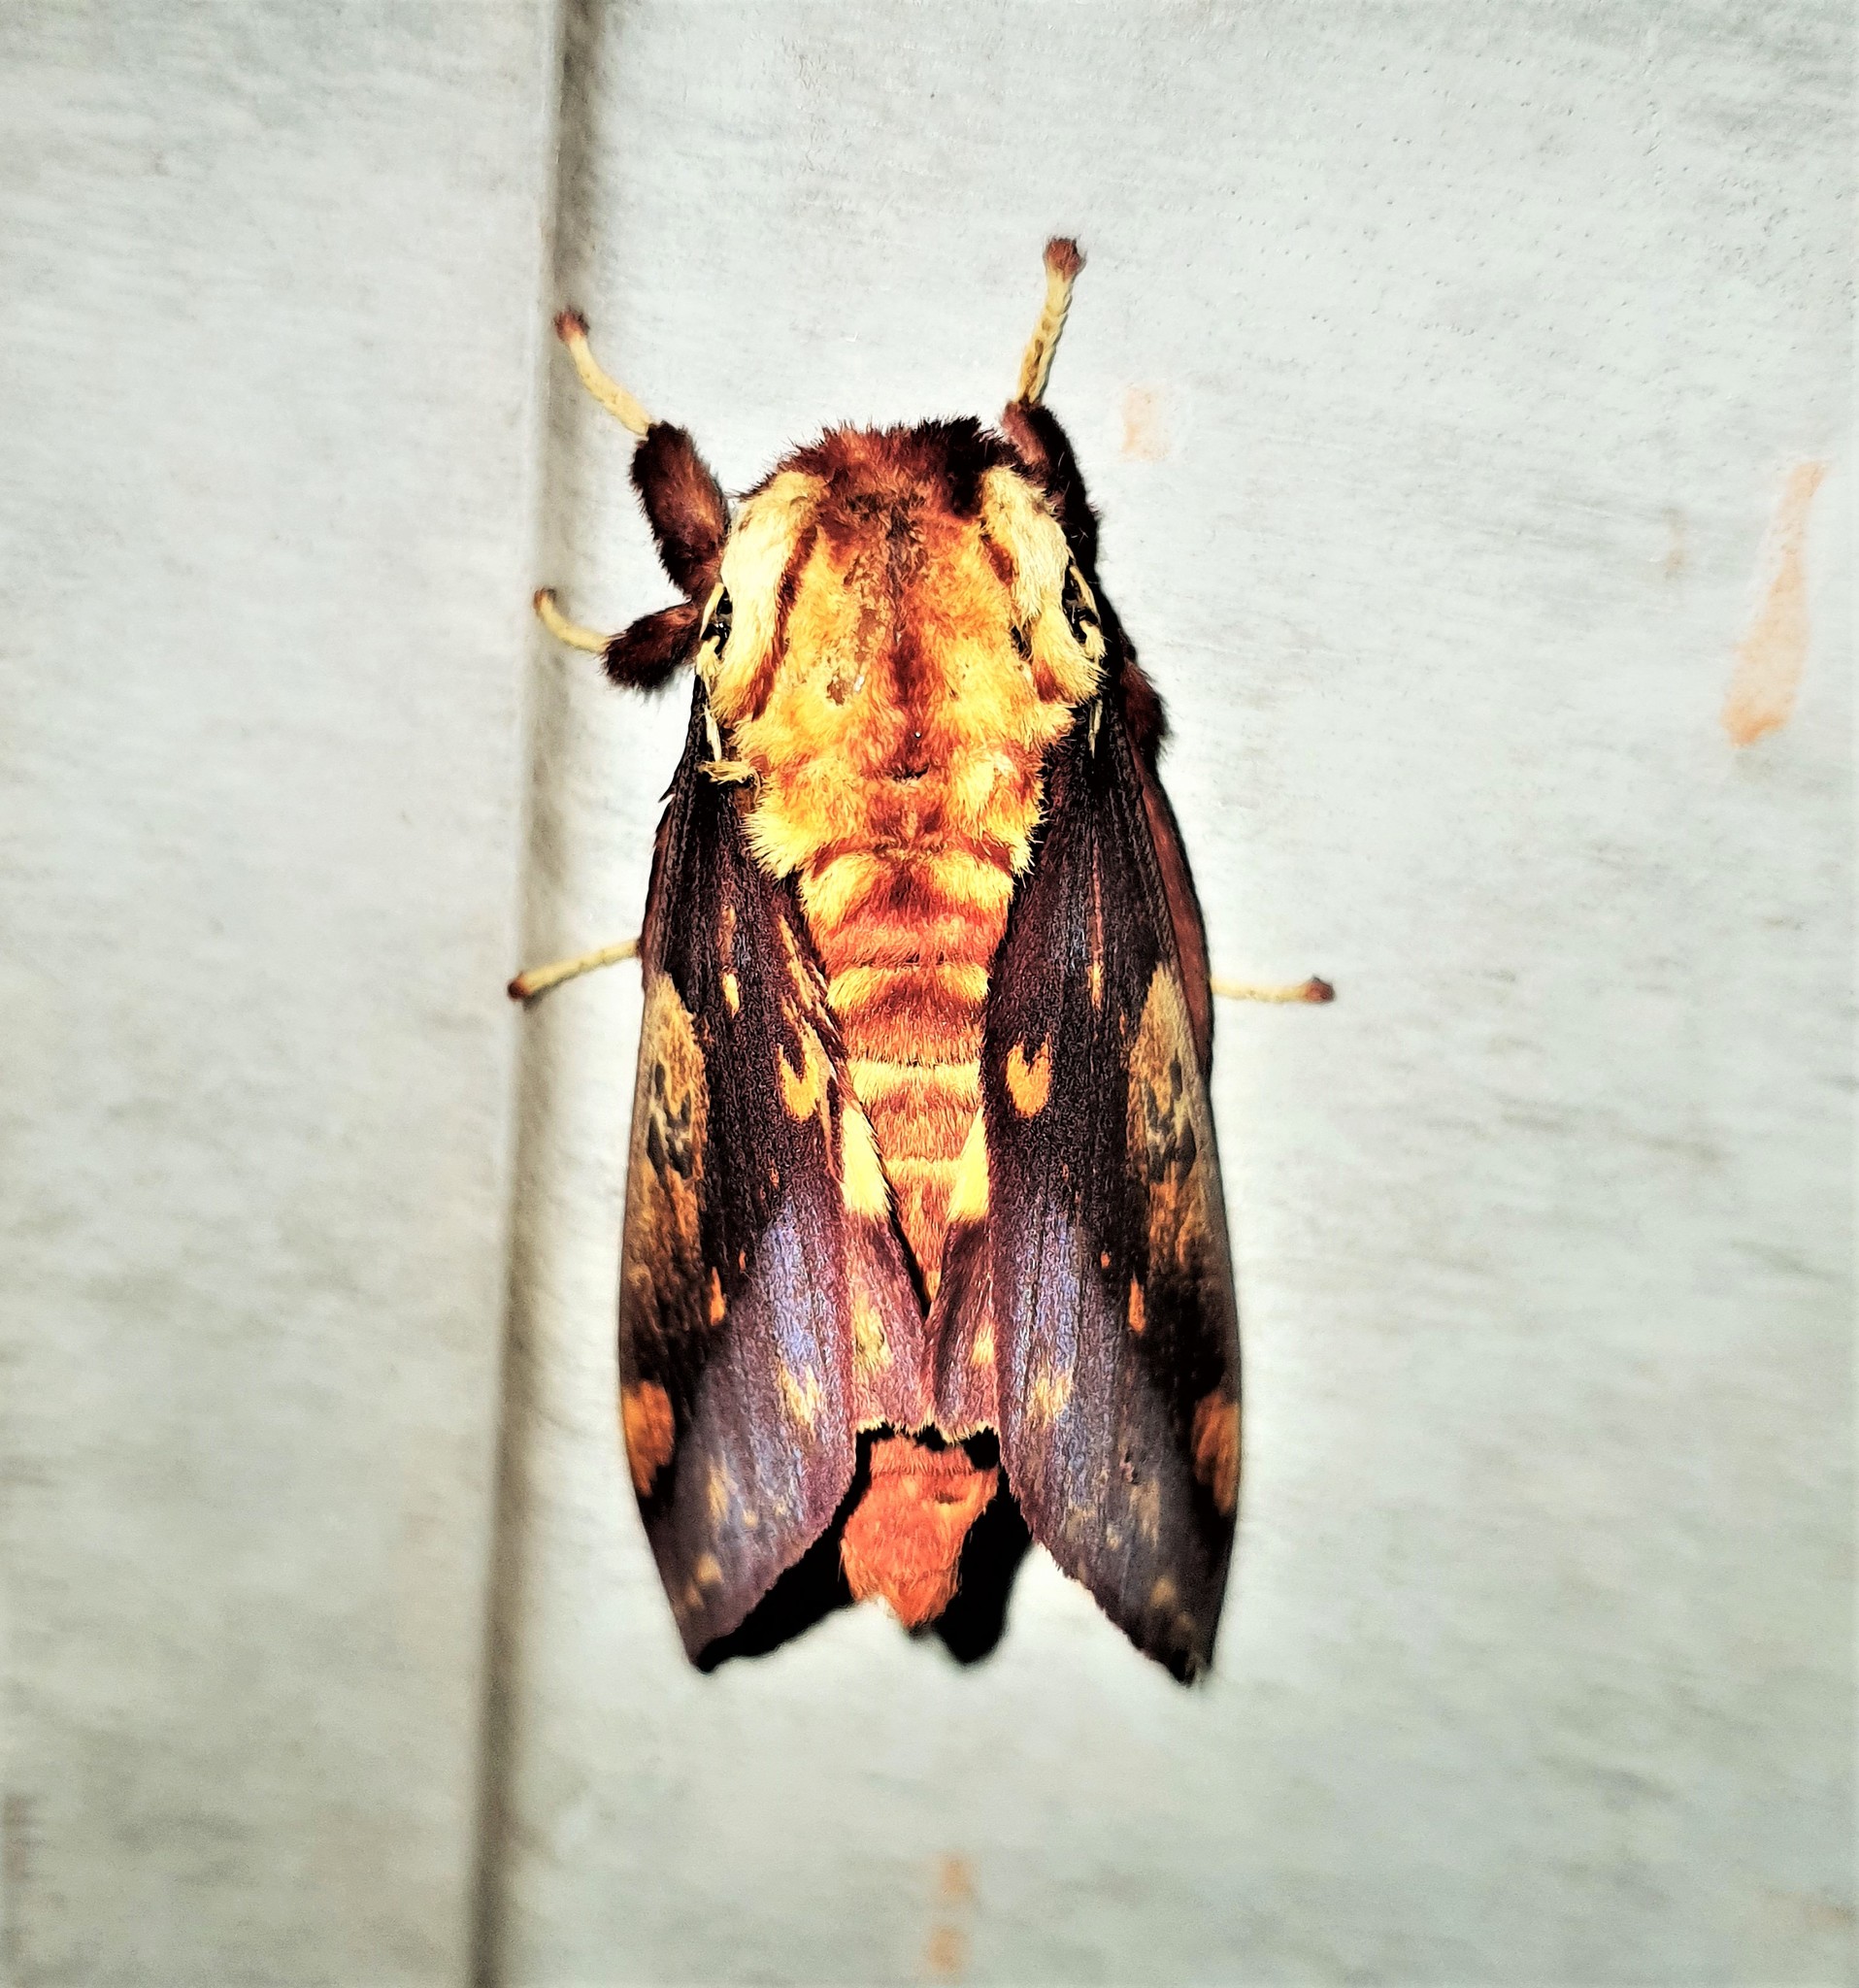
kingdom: Animalia
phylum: Arthropoda
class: Insecta
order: Lepidoptera
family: Saturniidae
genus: Citheronia
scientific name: Citheronia phoronea
